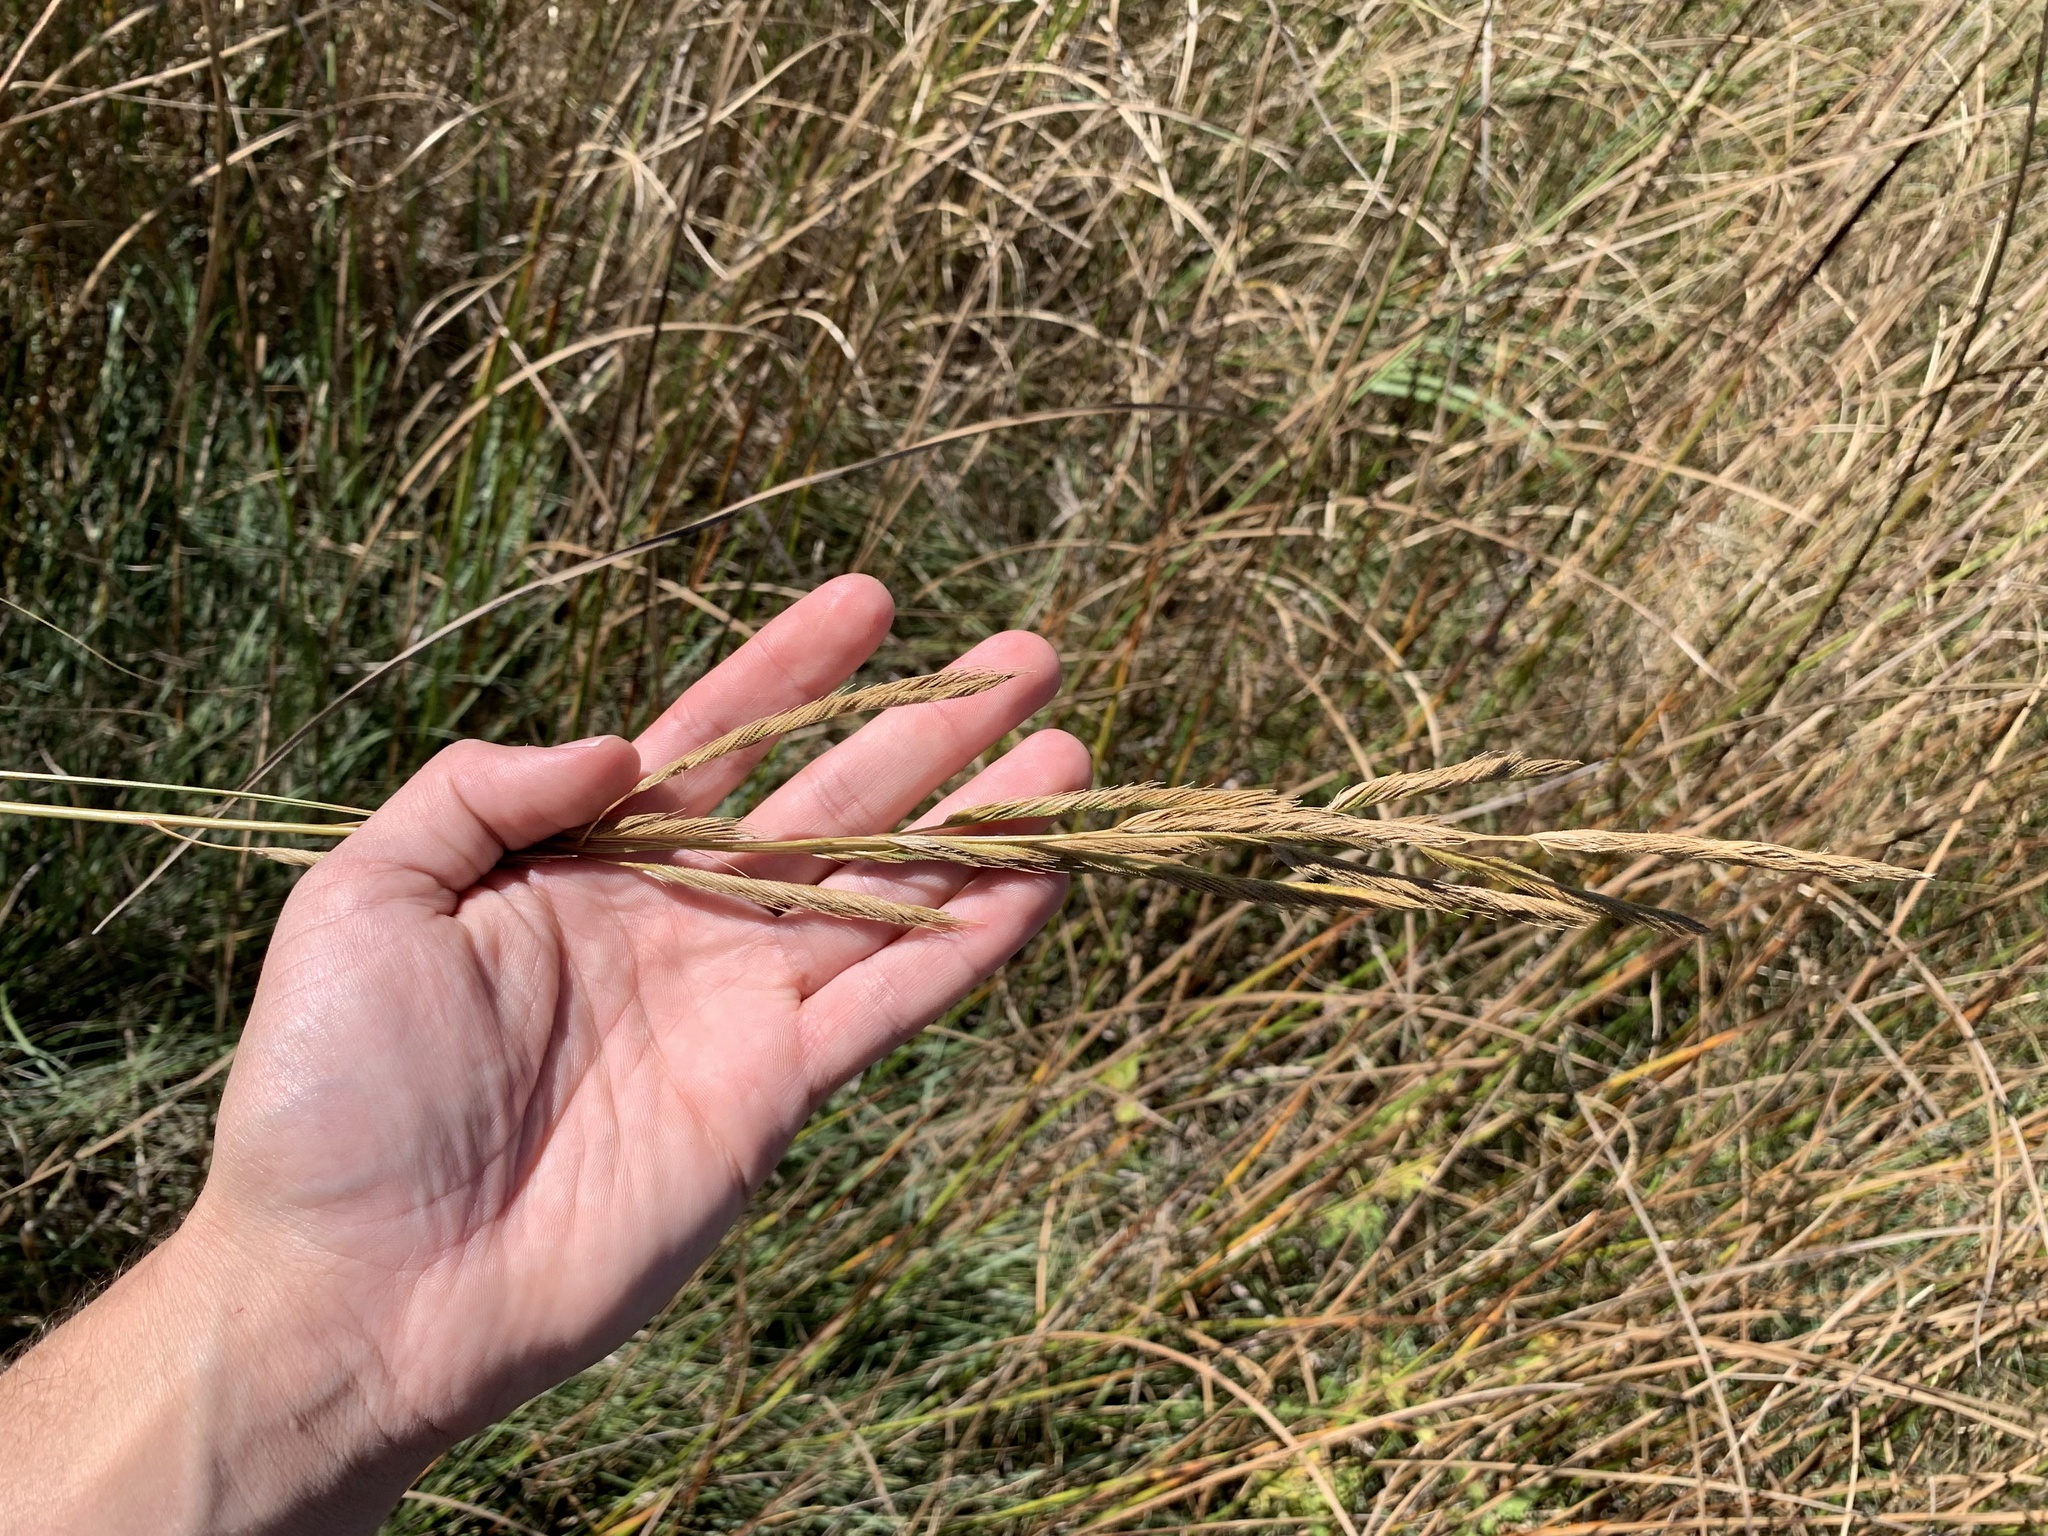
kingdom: Plantae
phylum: Tracheophyta
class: Liliopsida
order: Poales
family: Poaceae
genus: Sporobolus
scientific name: Sporobolus michauxianus
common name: Freshwater cordgrass
